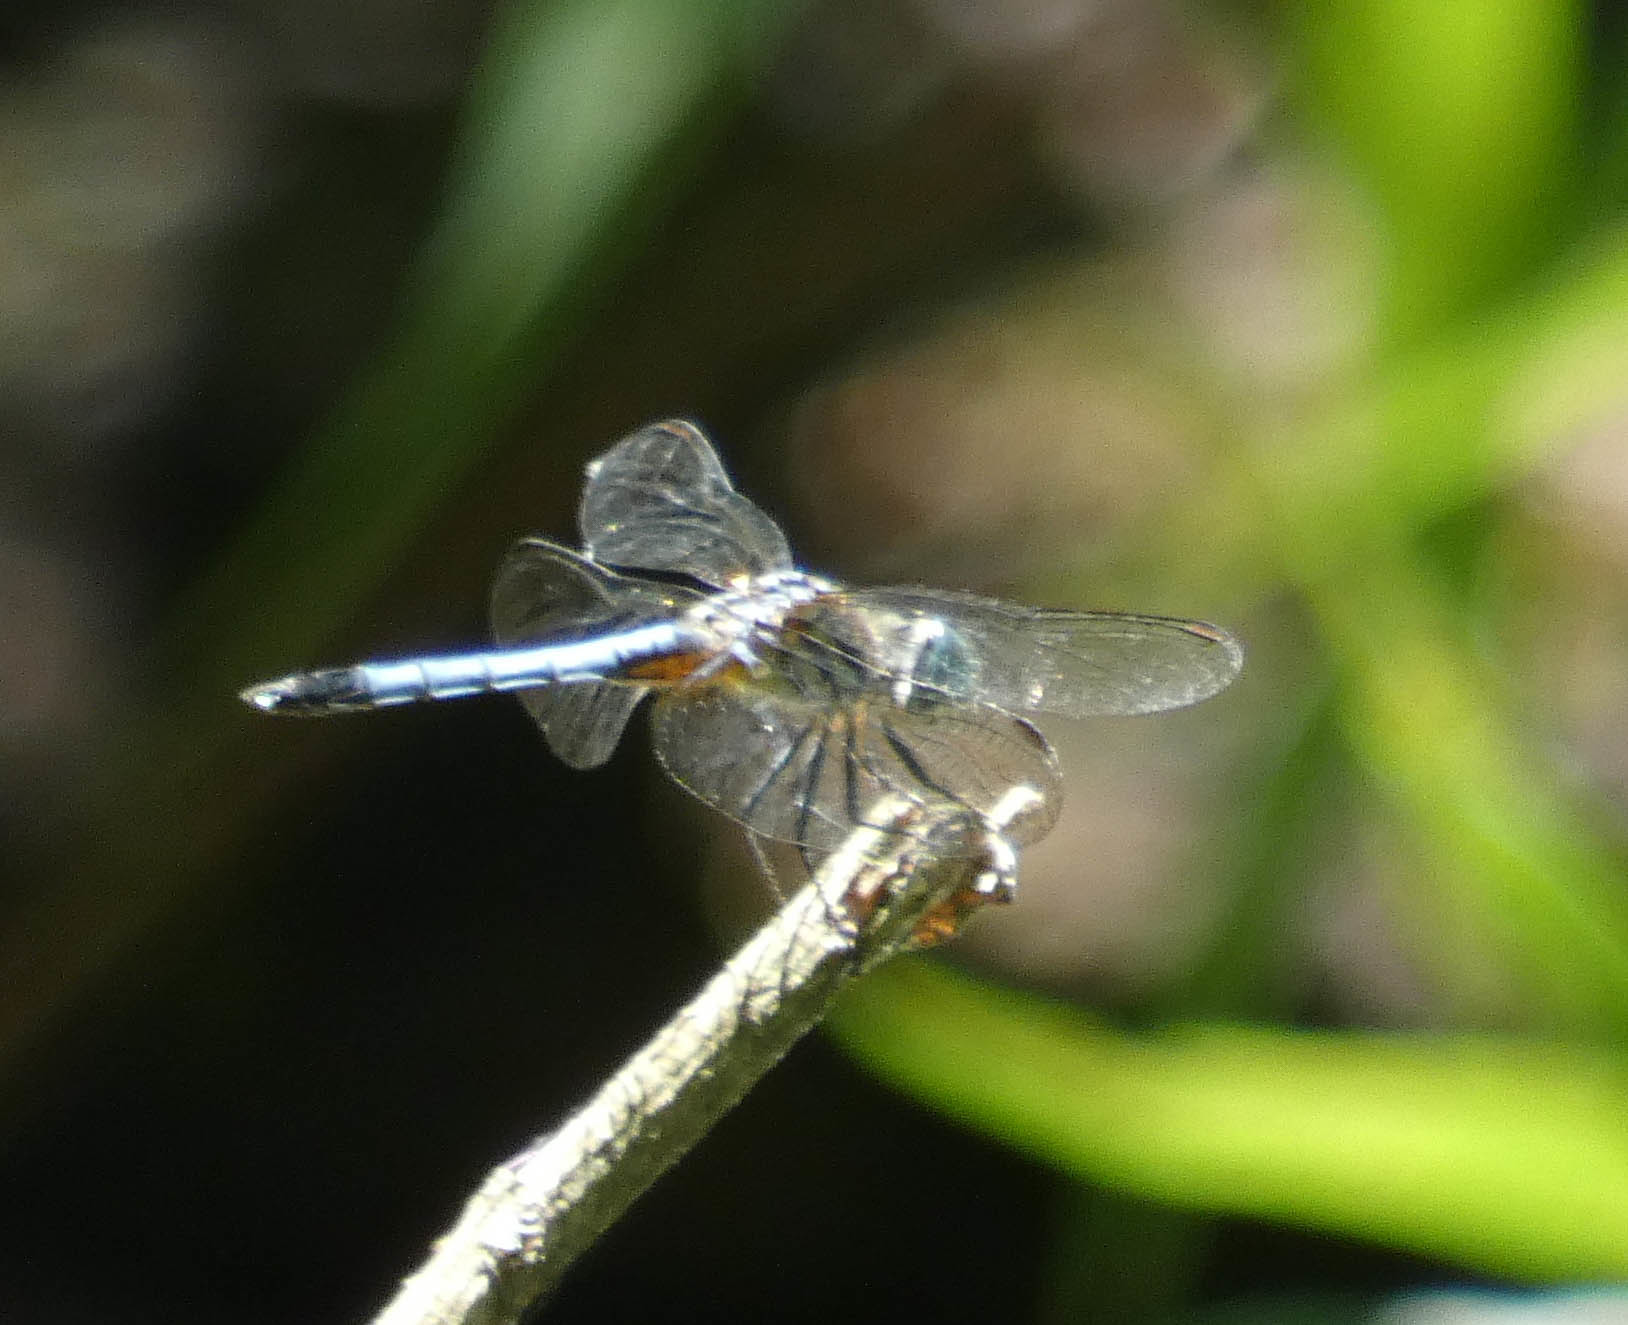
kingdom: Animalia
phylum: Arthropoda
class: Insecta
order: Odonata
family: Libellulidae
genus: Pachydiplax
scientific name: Pachydiplax longipennis
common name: Blue dasher
